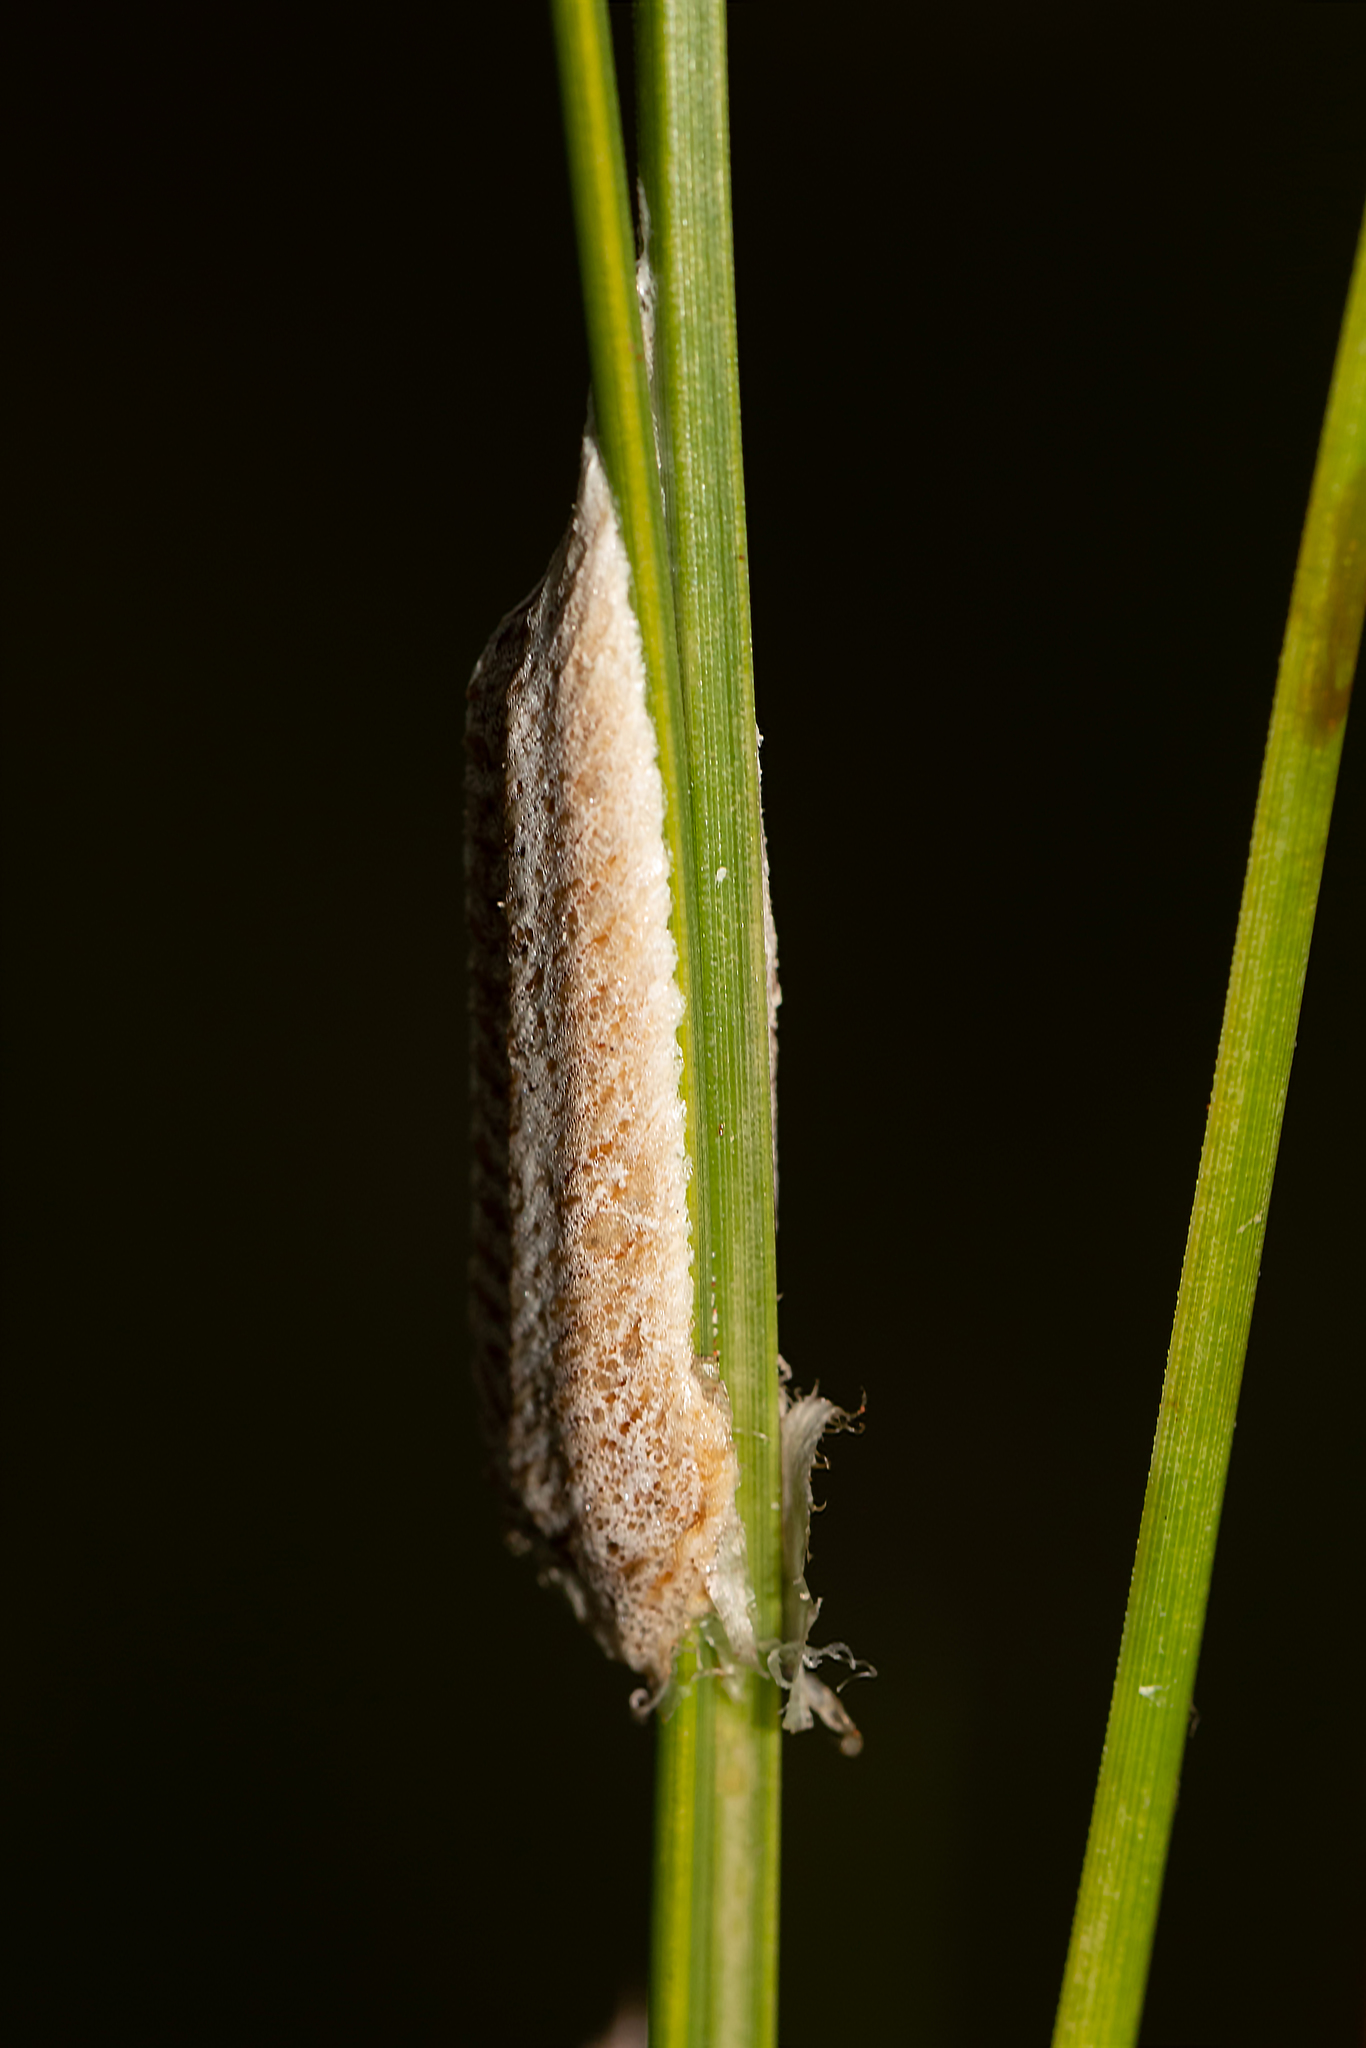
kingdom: Animalia
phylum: Arthropoda
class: Insecta
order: Mantodea
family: Mantidae
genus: Stagmomantis
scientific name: Stagmomantis floridensis
